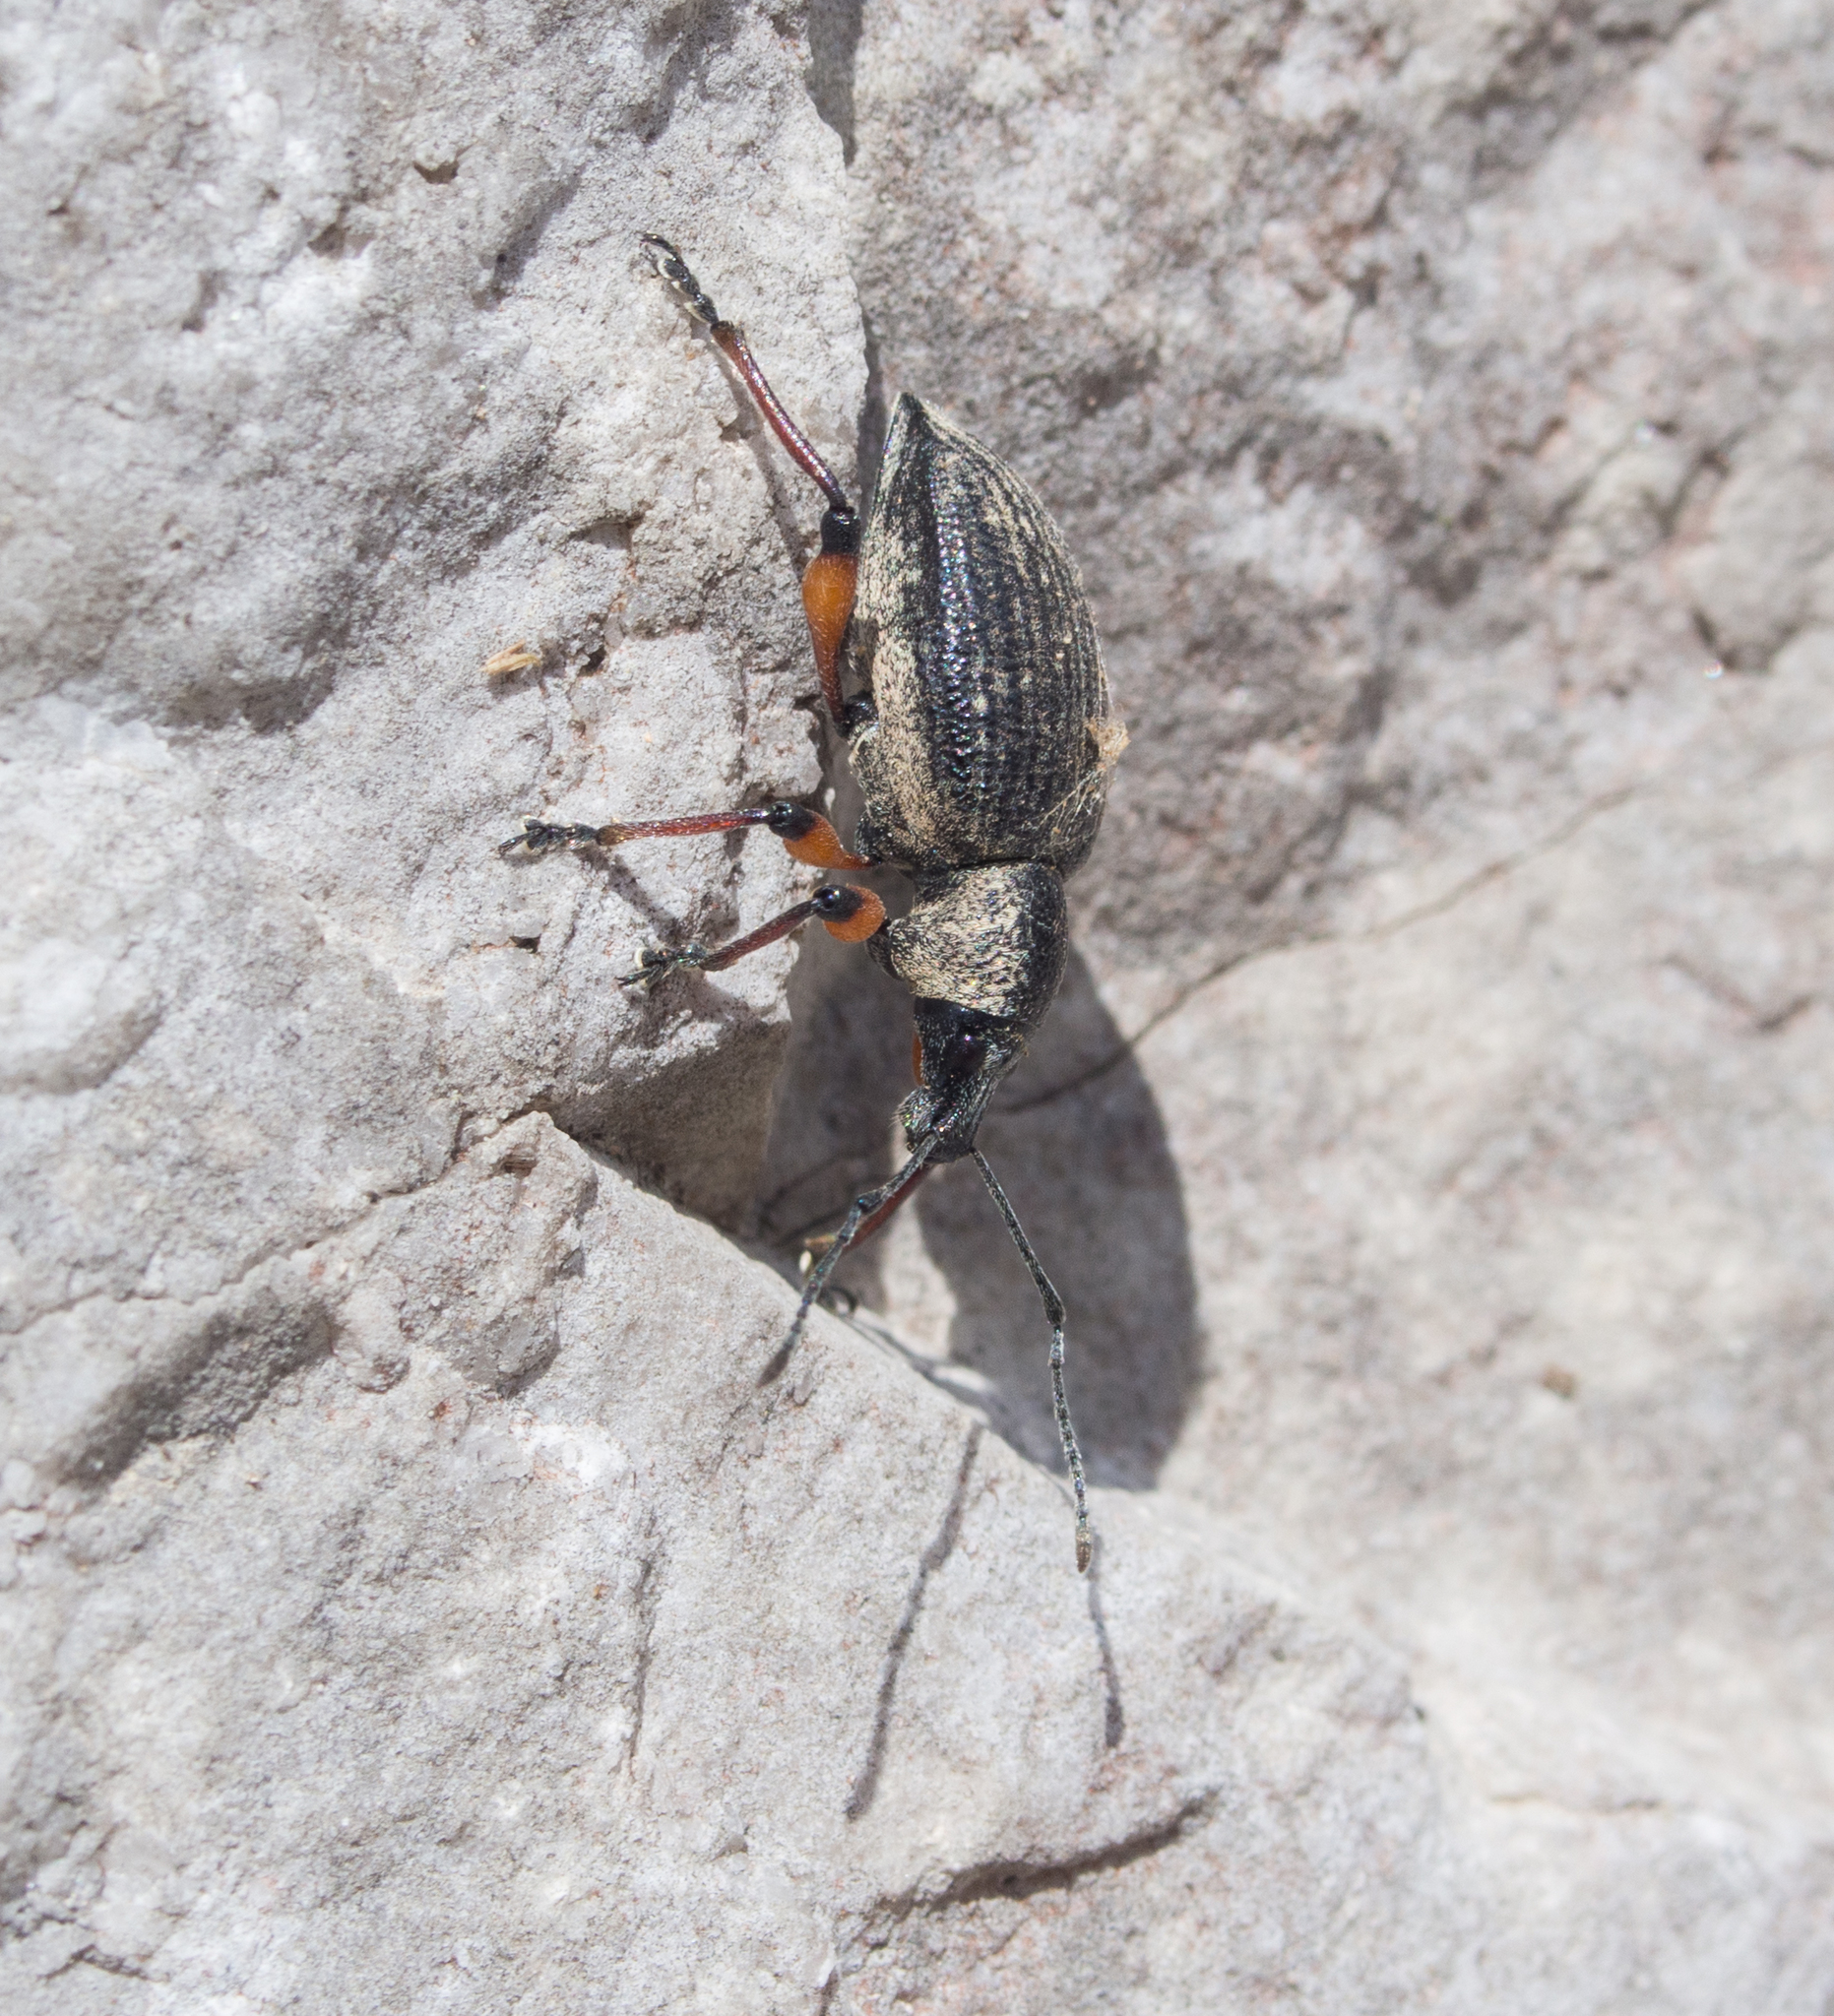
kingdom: Animalia
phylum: Arthropoda
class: Insecta
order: Coleoptera
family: Curculionidae
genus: Otiorhynchus
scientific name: Otiorhynchus sensitivus
